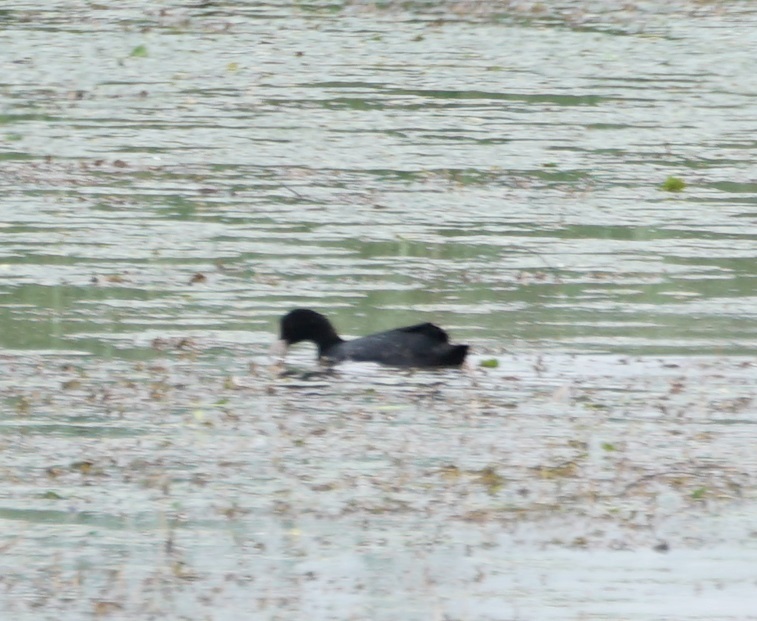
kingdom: Animalia
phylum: Chordata
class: Aves
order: Gruiformes
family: Rallidae
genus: Fulica
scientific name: Fulica atra
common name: Eurasian coot
